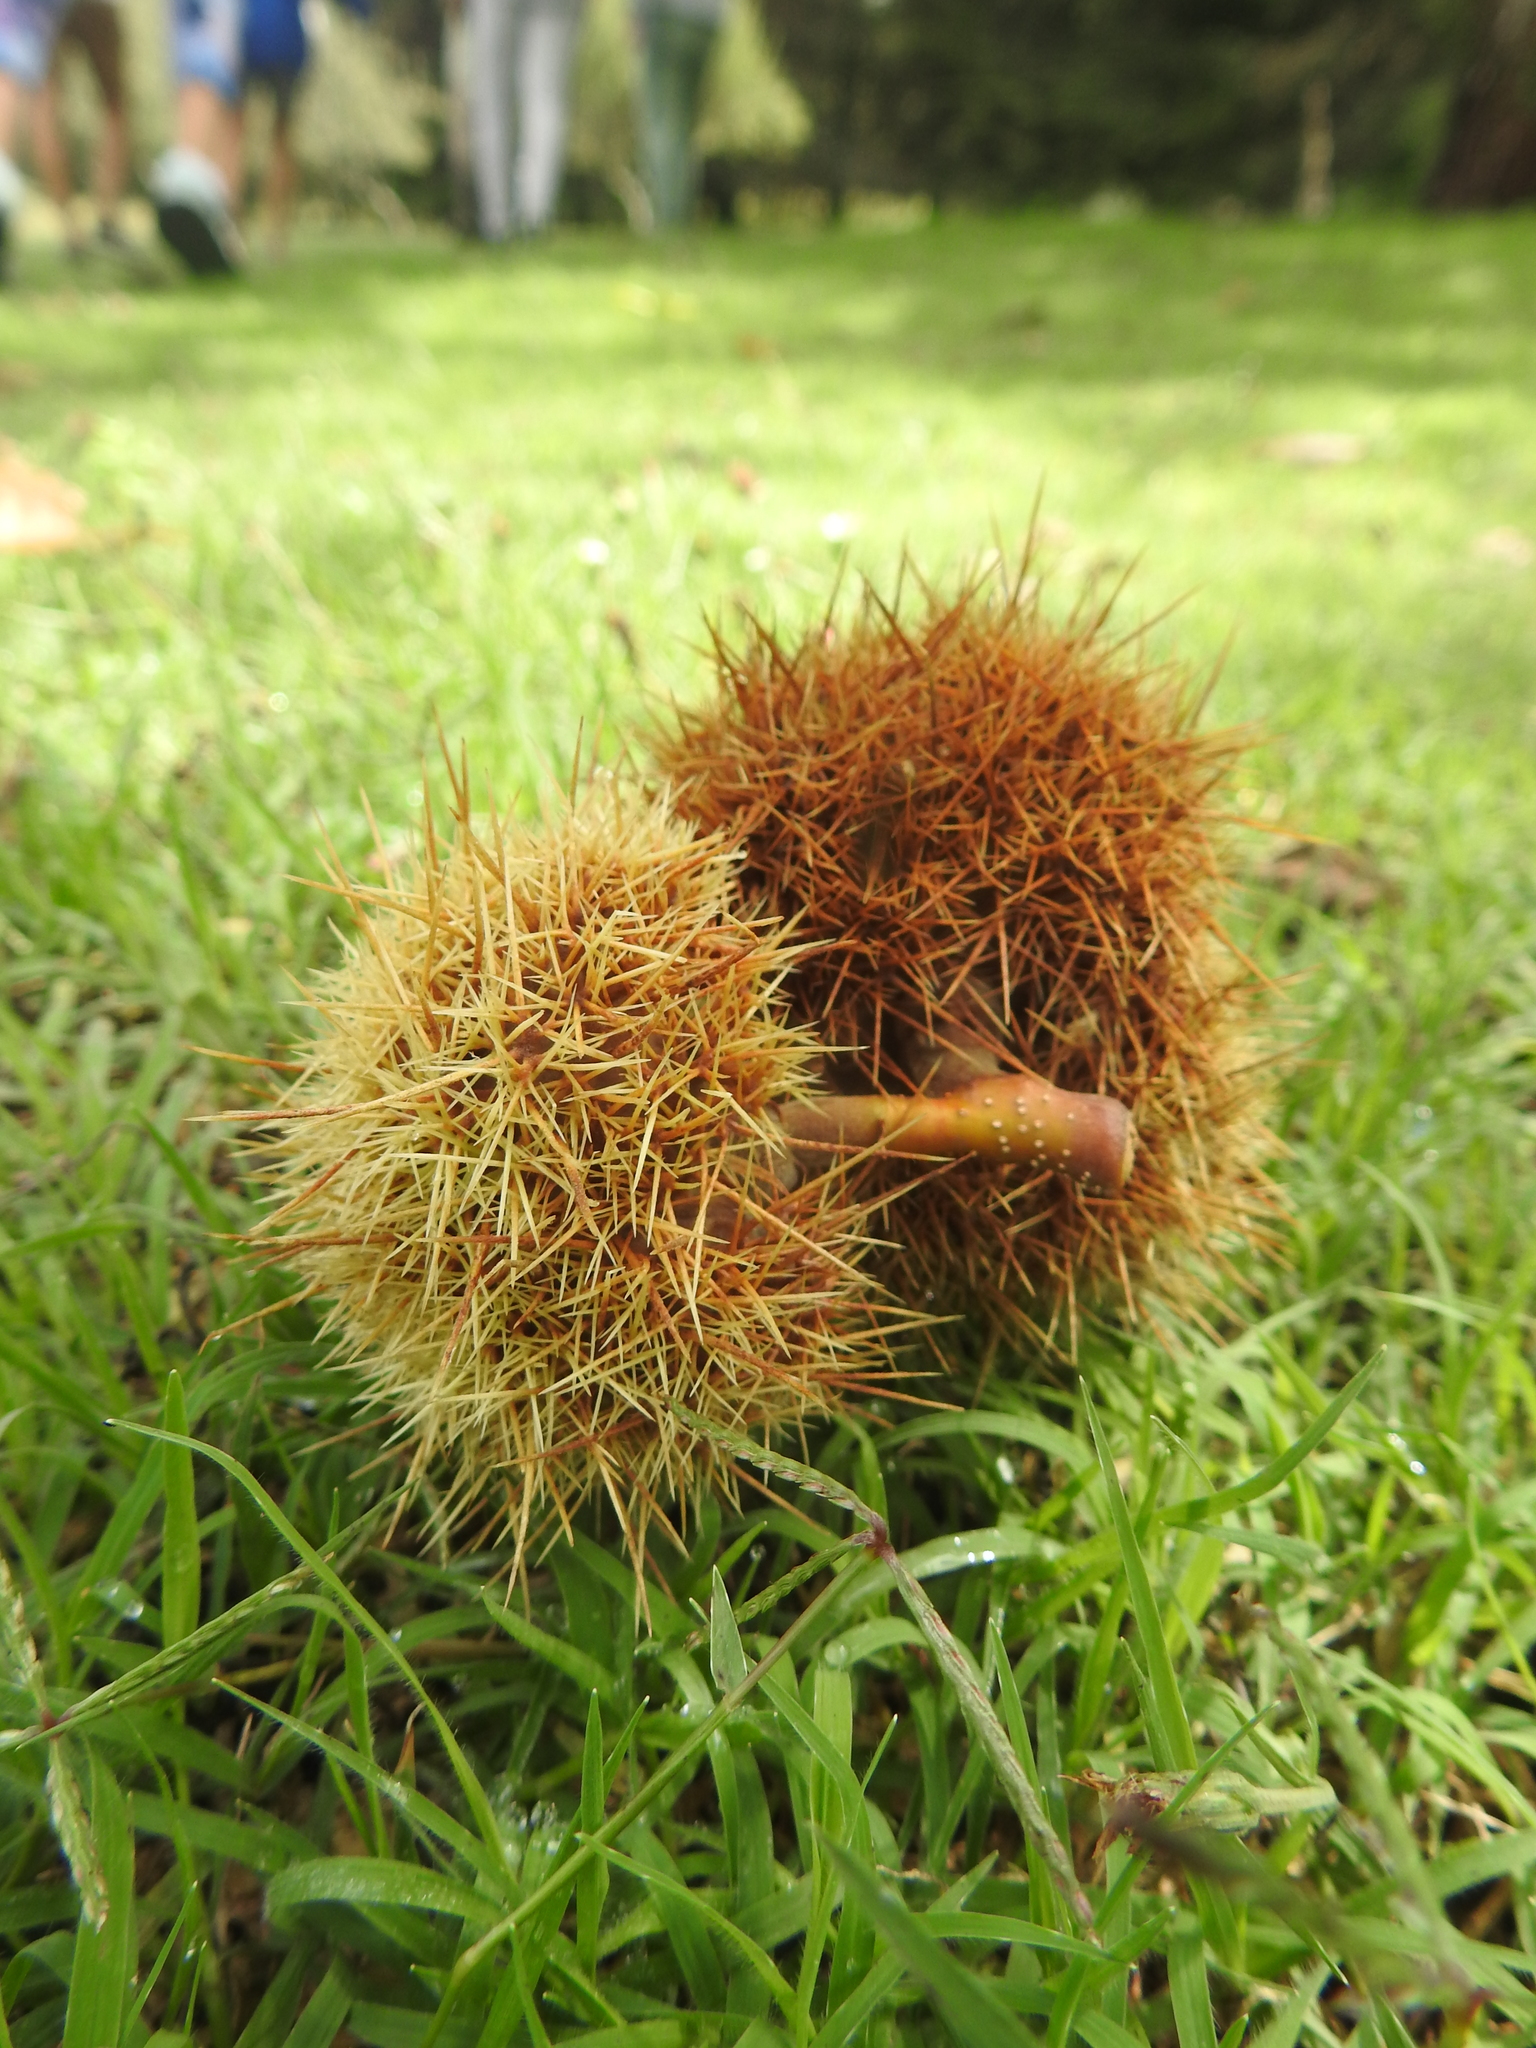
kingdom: Plantae
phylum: Tracheophyta
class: Magnoliopsida
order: Sapindales
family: Sapindaceae
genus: Aesculus
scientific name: Aesculus hippocastanum
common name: Horse-chestnut
